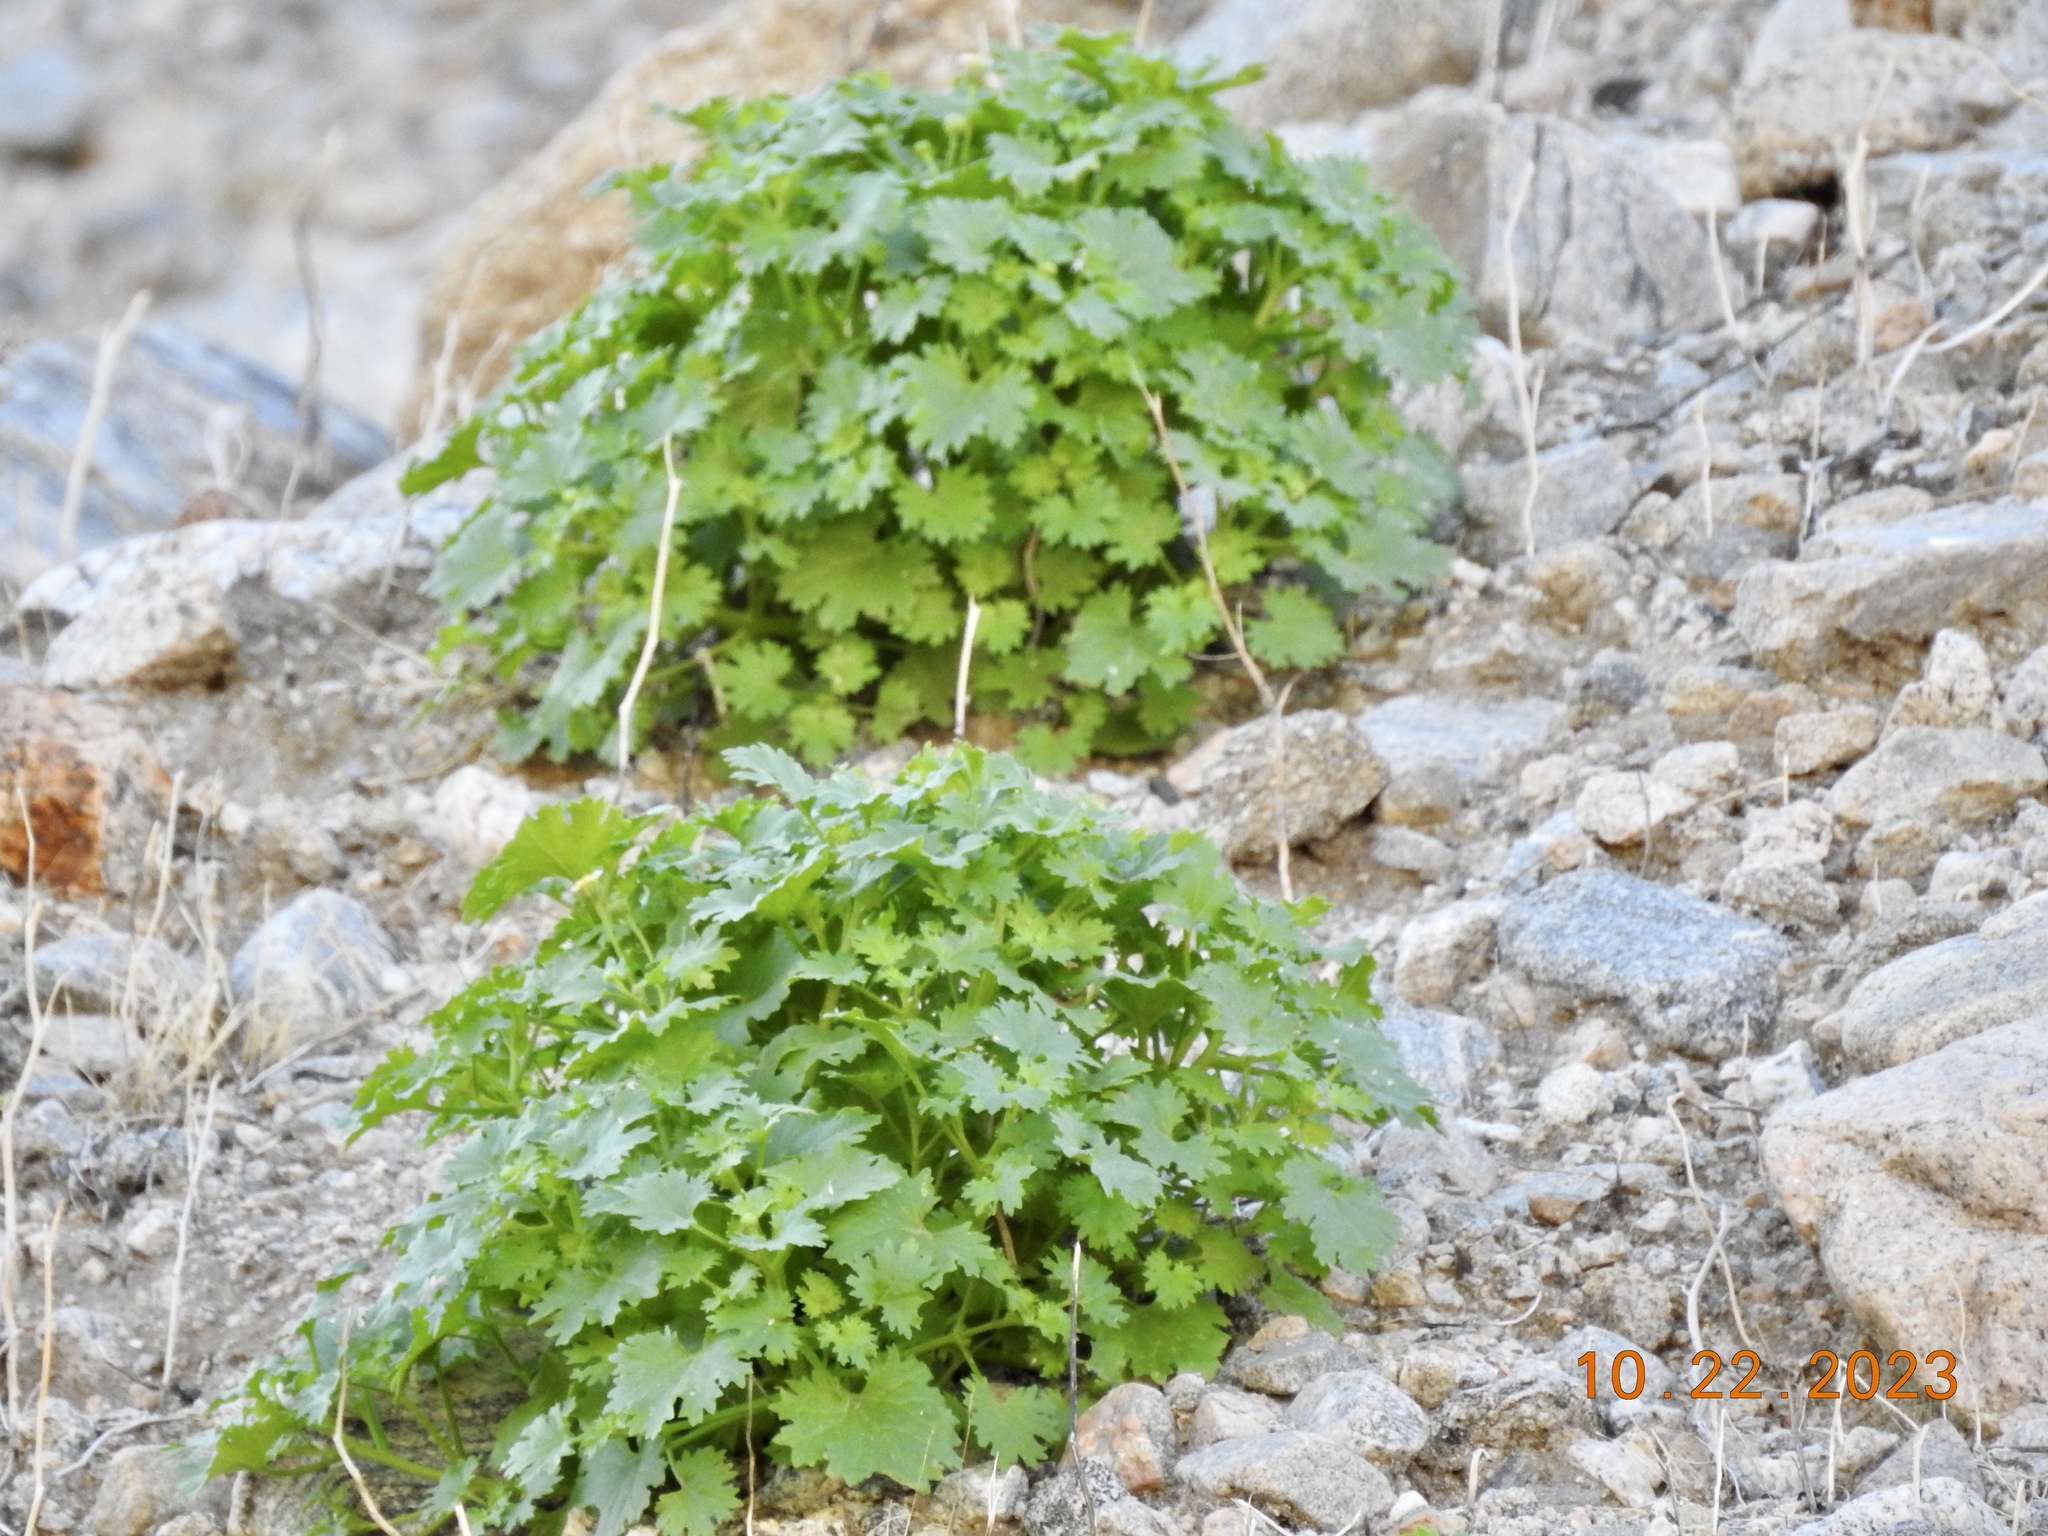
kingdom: Plantae
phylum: Tracheophyta
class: Magnoliopsida
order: Asterales
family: Asteraceae
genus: Laphamia
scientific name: Laphamia emoryi
